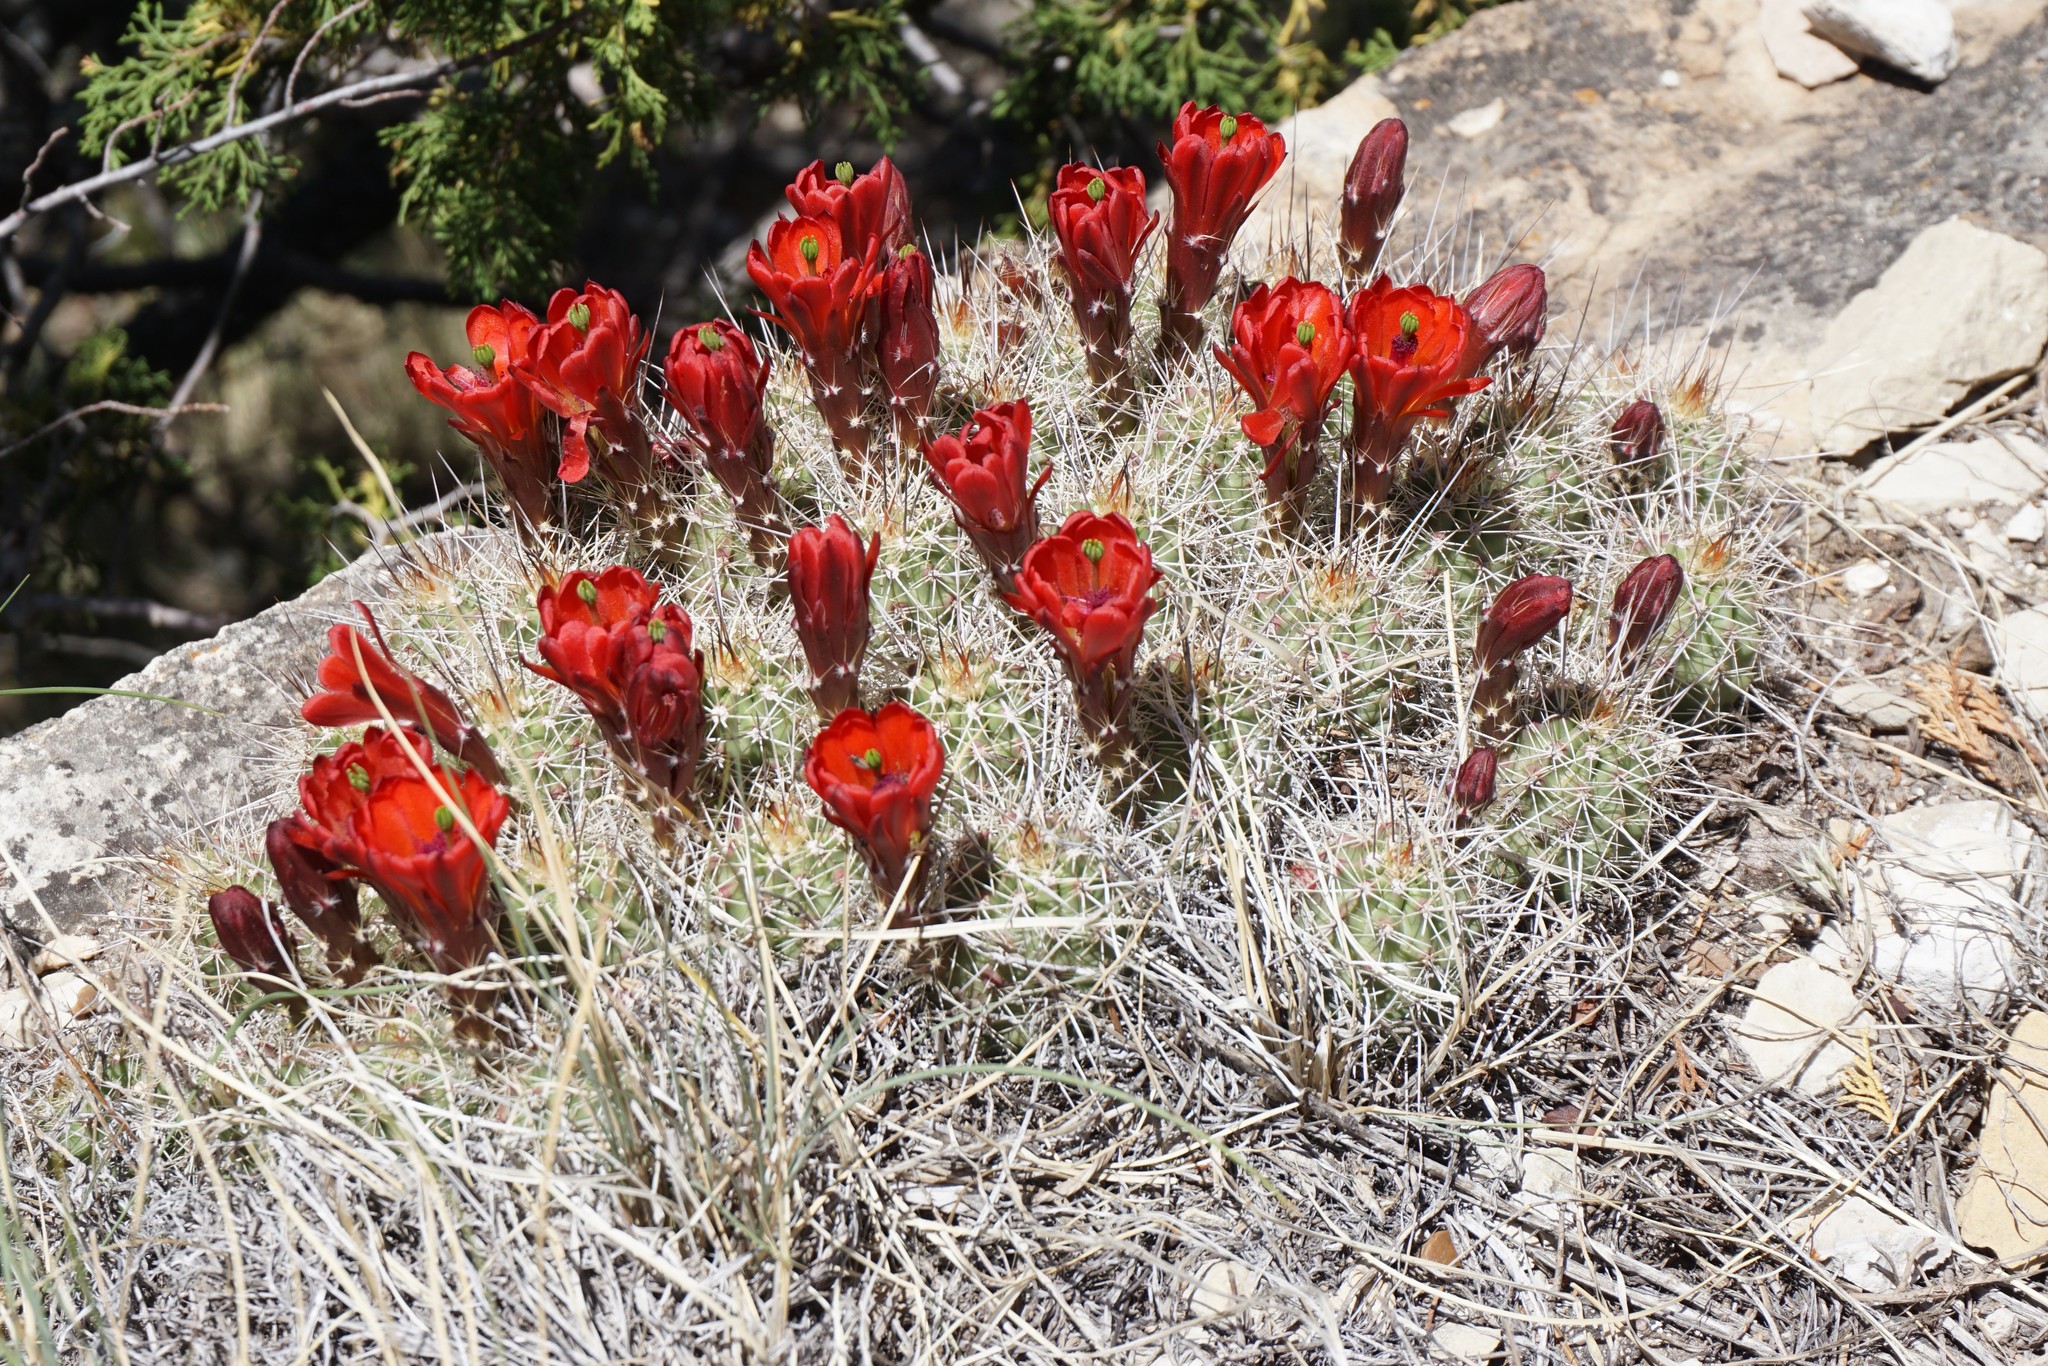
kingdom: Plantae
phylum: Tracheophyta
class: Magnoliopsida
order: Caryophyllales
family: Cactaceae
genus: Echinocereus
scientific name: Echinocereus bakeri
